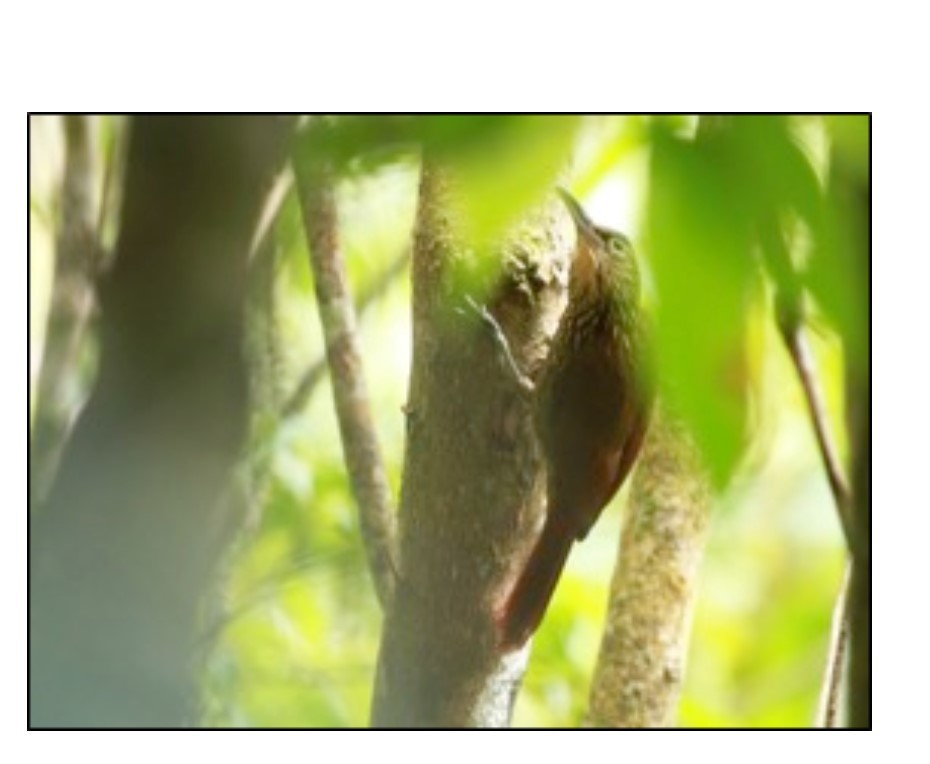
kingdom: Animalia
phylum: Chordata
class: Aves
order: Passeriformes
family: Furnariidae
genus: Xiphorhynchus
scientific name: Xiphorhynchus susurrans
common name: Cocoa woodcreeper
